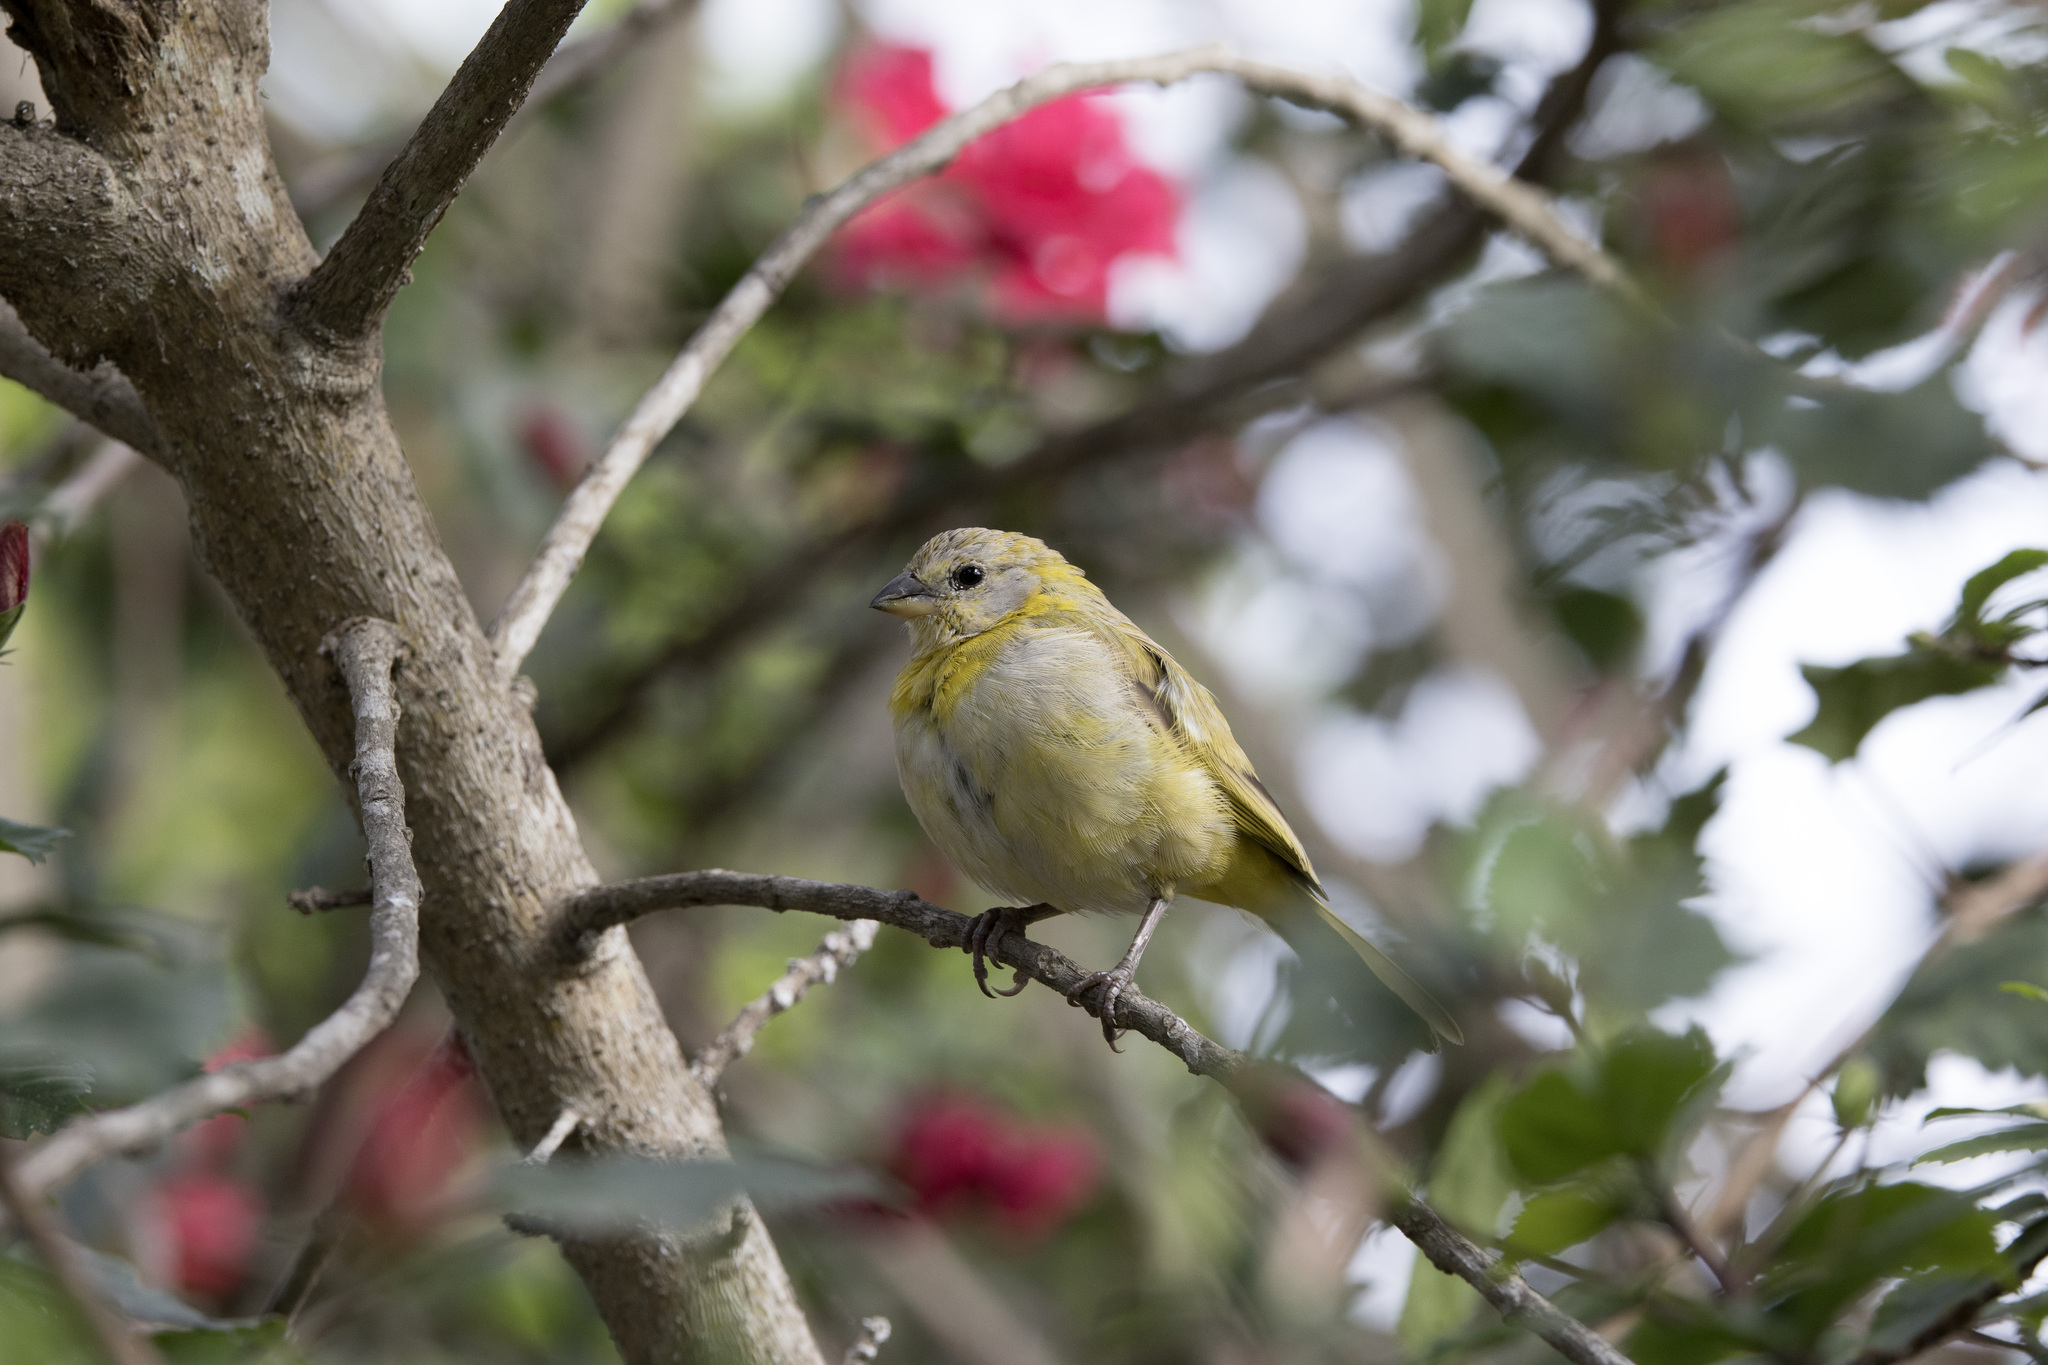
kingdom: Animalia
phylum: Chordata
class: Aves
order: Passeriformes
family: Thraupidae
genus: Sicalis
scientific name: Sicalis flaveola
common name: Saffron finch
